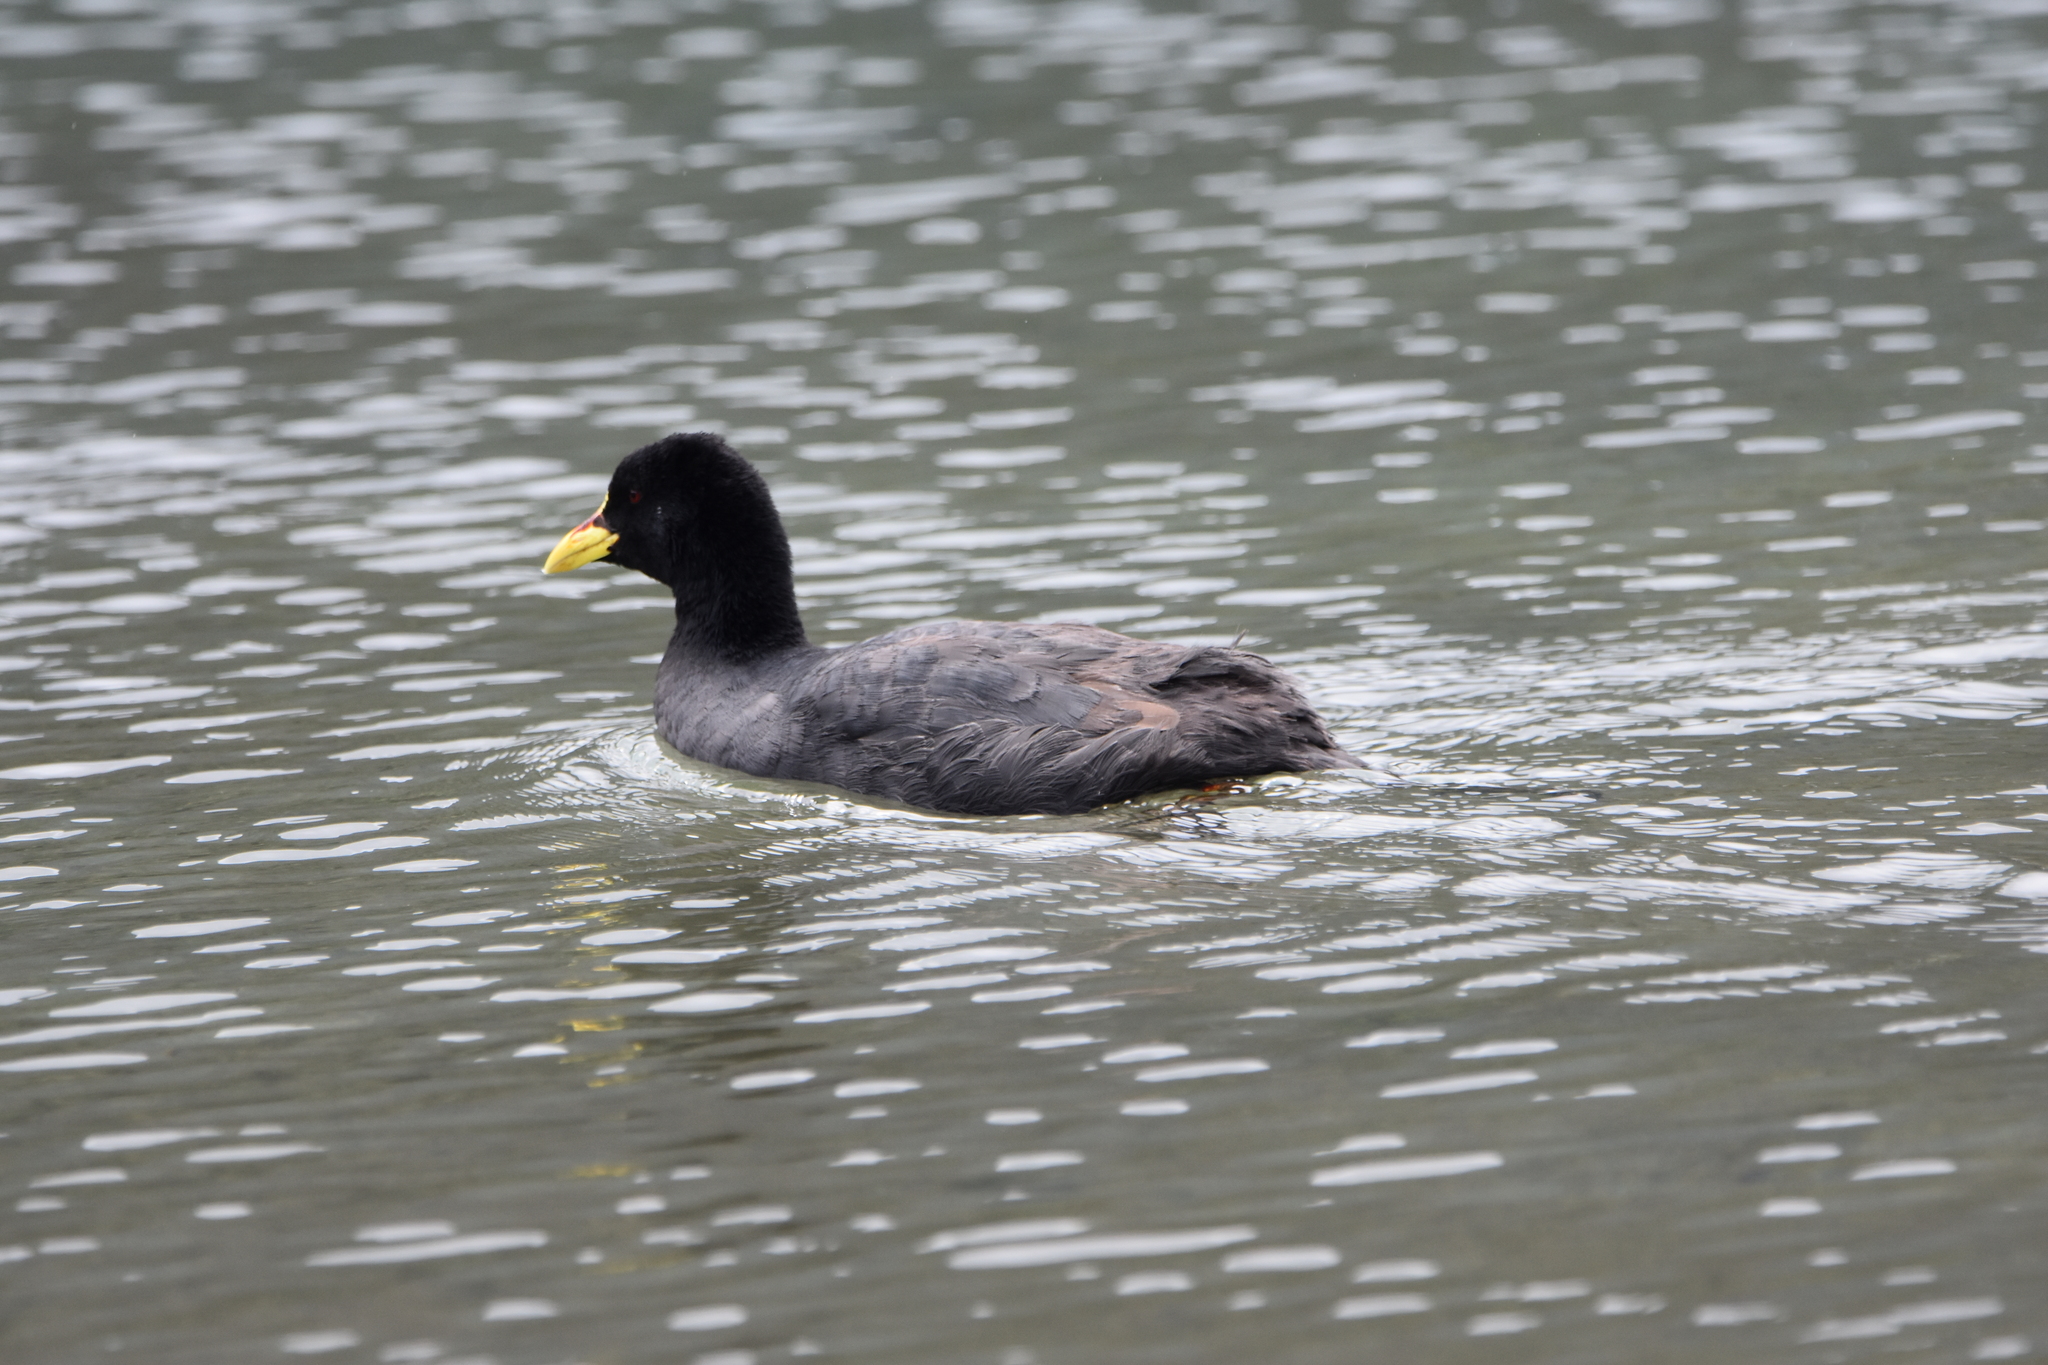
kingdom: Animalia
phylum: Chordata
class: Aves
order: Gruiformes
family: Rallidae
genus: Fulica
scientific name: Fulica armillata
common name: Red-gartered coot
